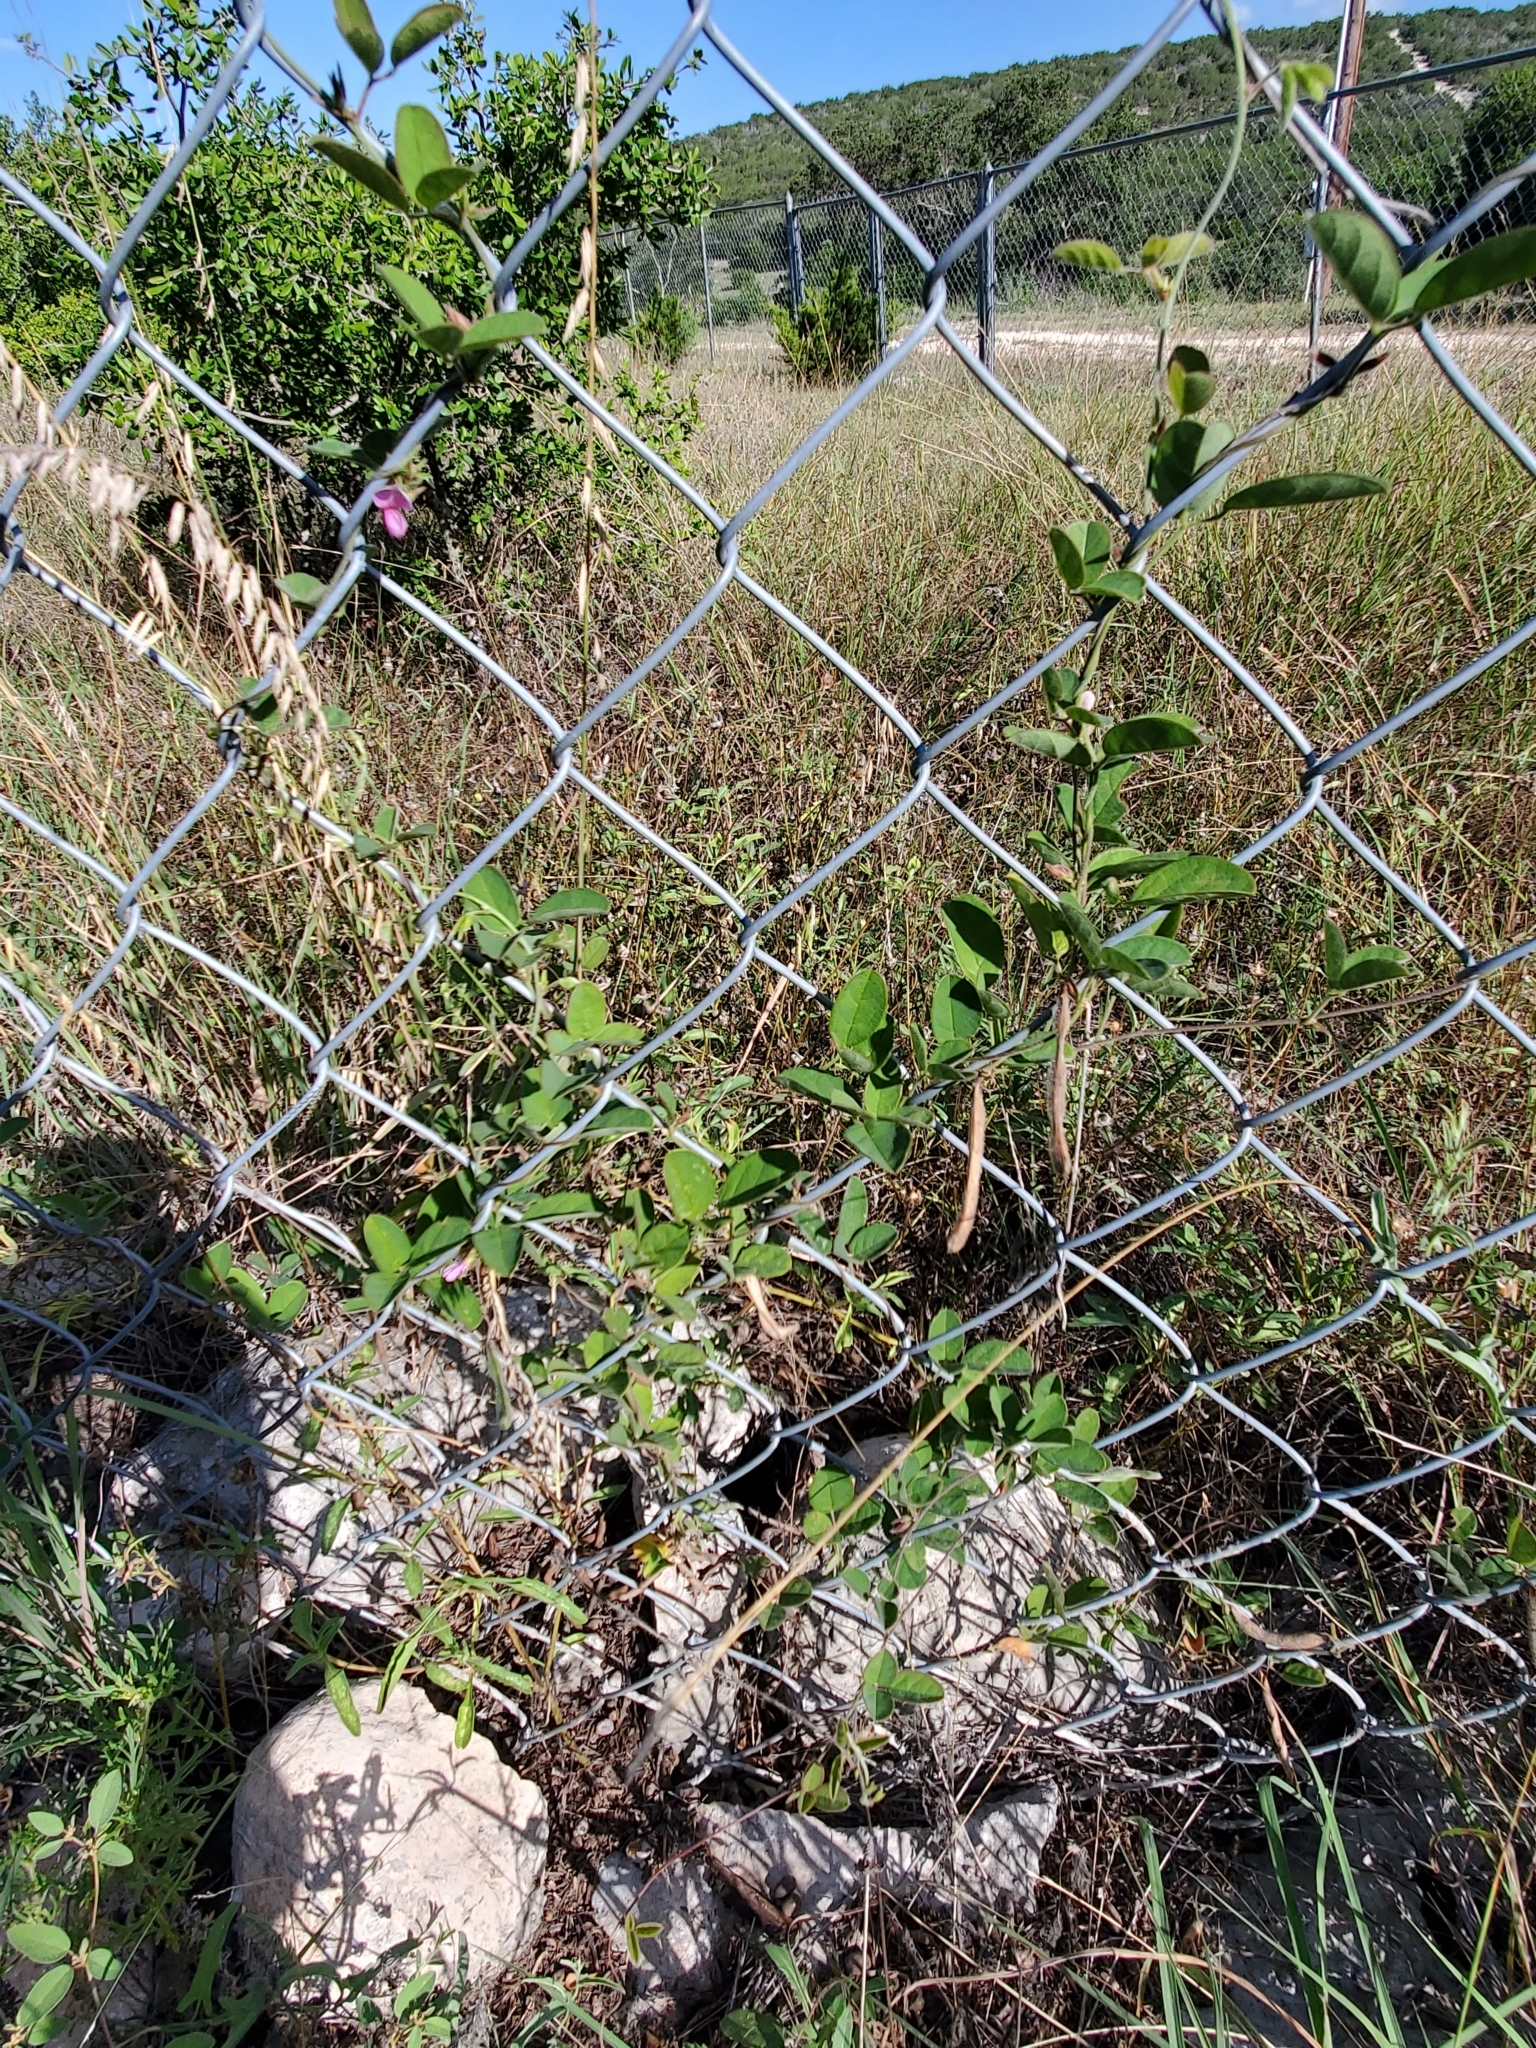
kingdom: Plantae
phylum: Tracheophyta
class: Magnoliopsida
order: Fabales
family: Fabaceae
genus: Galactia
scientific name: Galactia texana
